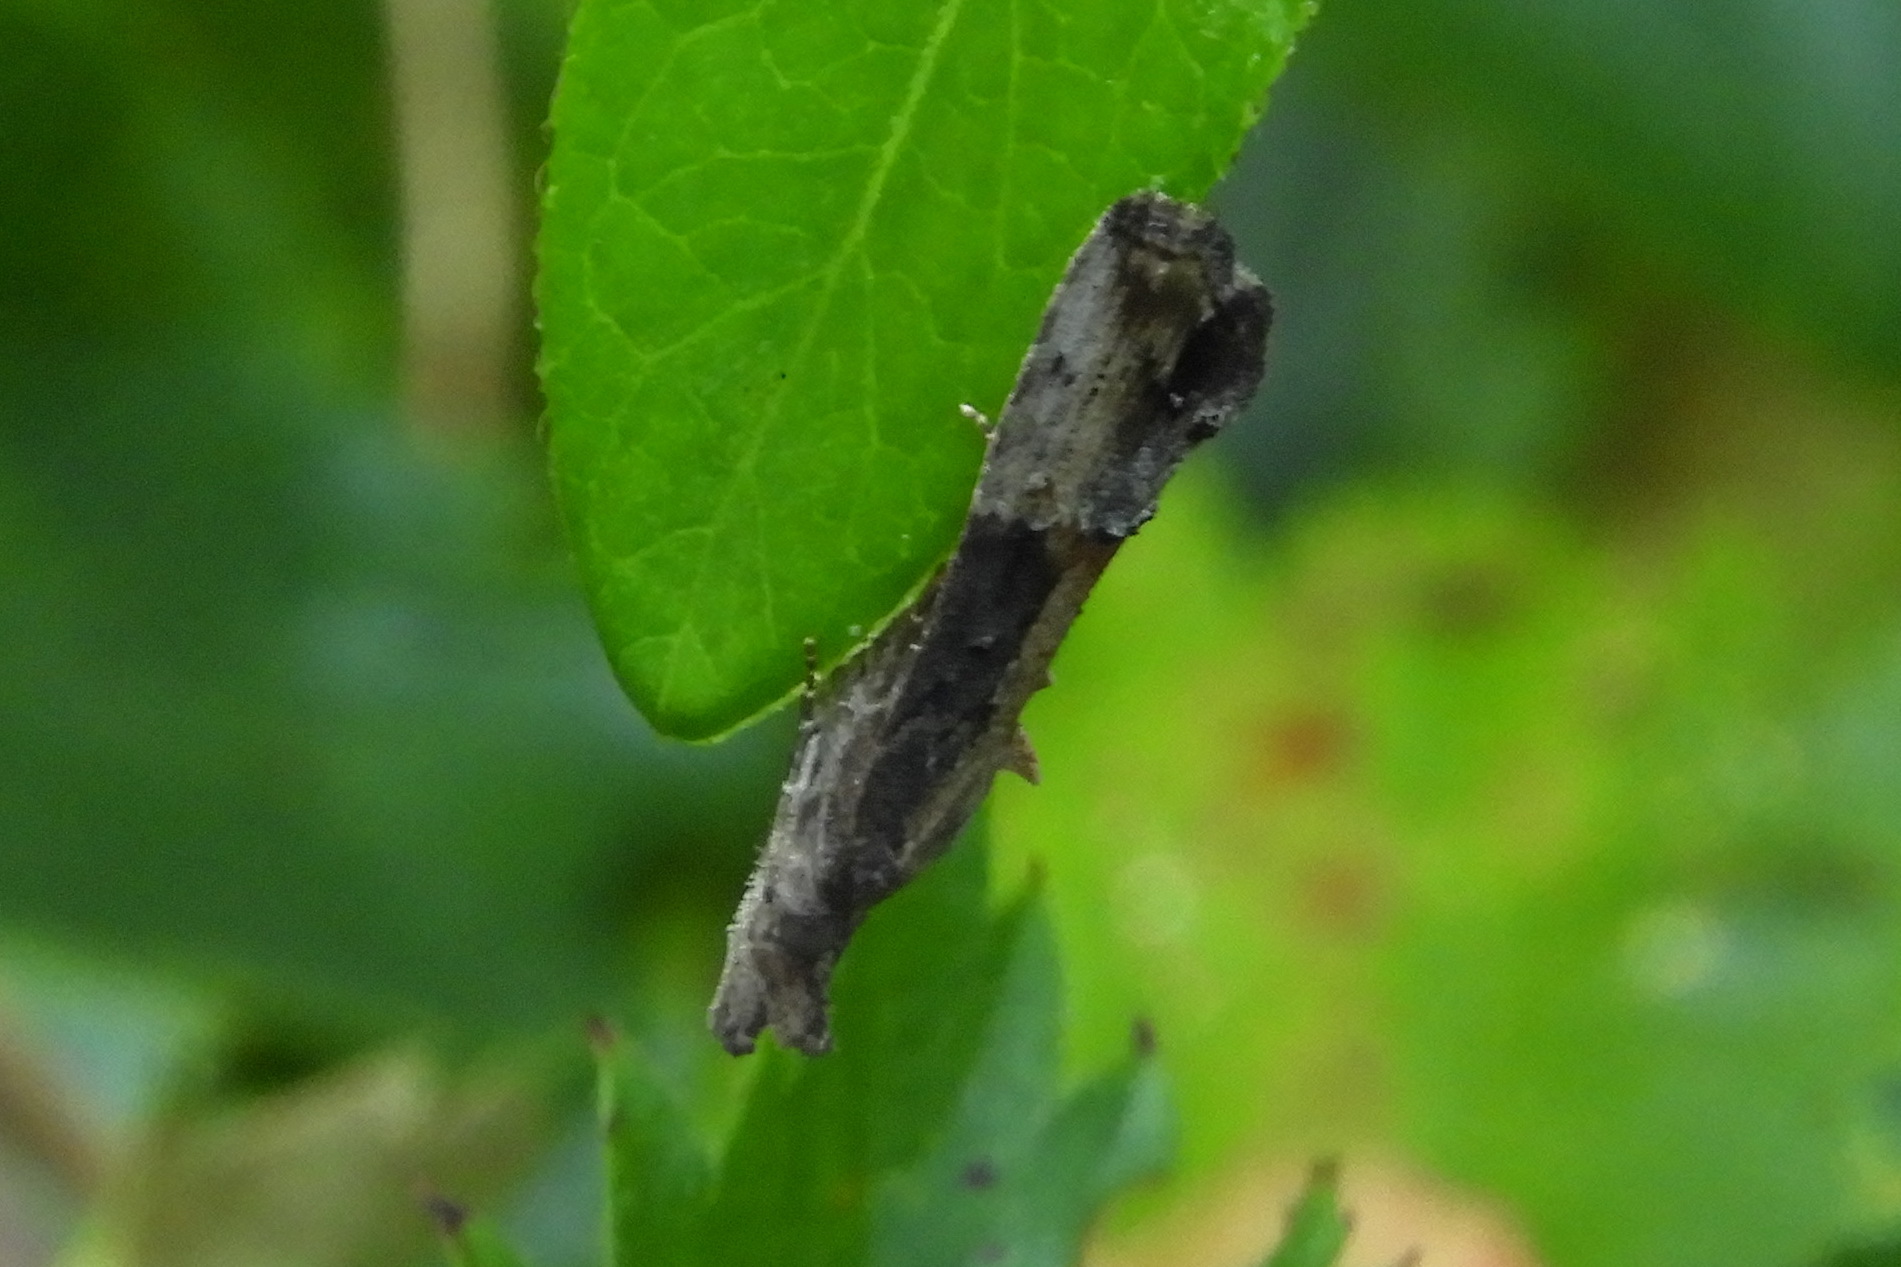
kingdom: Animalia
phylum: Arthropoda
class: Insecta
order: Lepidoptera
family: Erebidae
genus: Hypena
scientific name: Hypena scabra
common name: Green cloverworm
